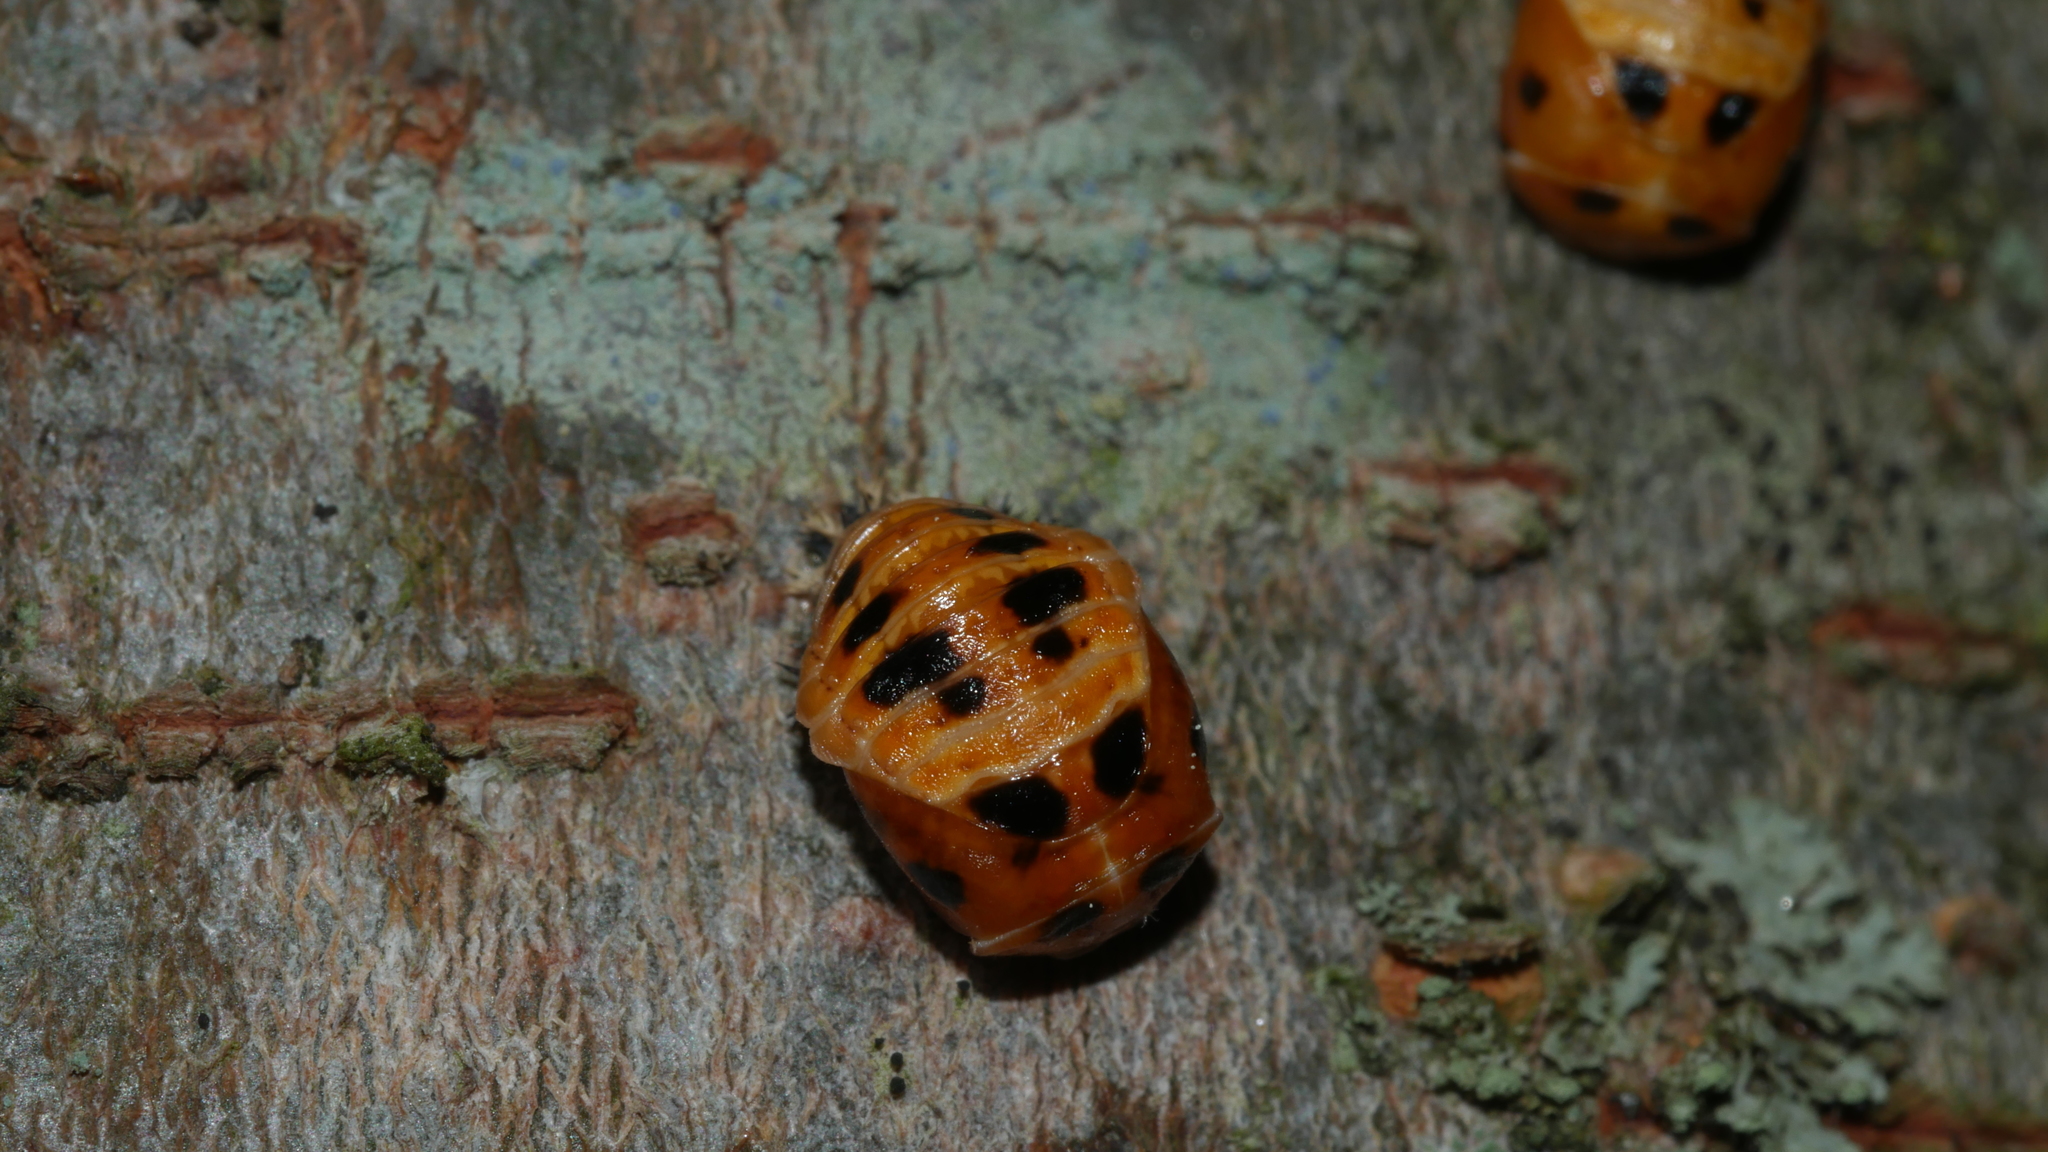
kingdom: Animalia
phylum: Arthropoda
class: Insecta
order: Coleoptera
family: Coccinellidae
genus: Harmonia
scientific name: Harmonia axyridis
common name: Harlequin ladybird
